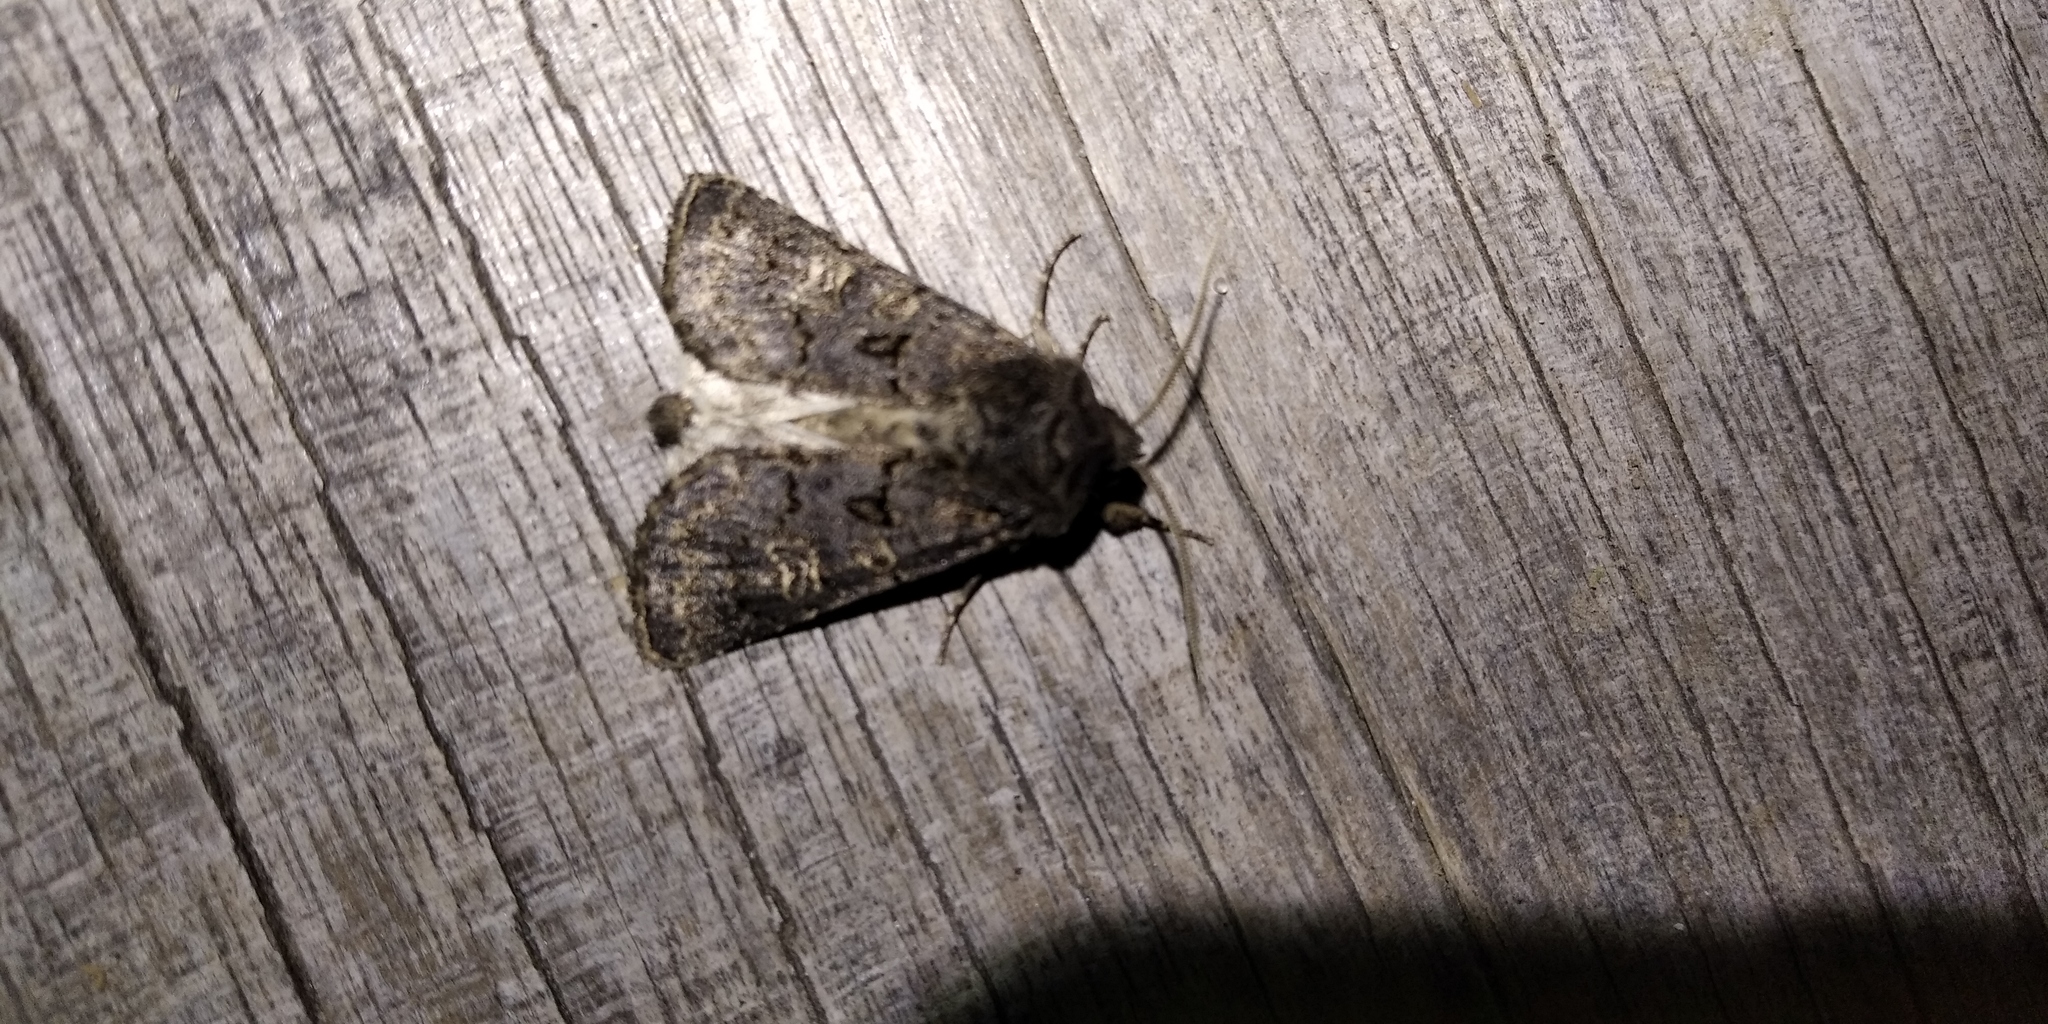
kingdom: Animalia
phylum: Arthropoda
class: Insecta
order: Lepidoptera
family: Noctuidae
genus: Tholera
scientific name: Tholera cespitis
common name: Hedge rustic
